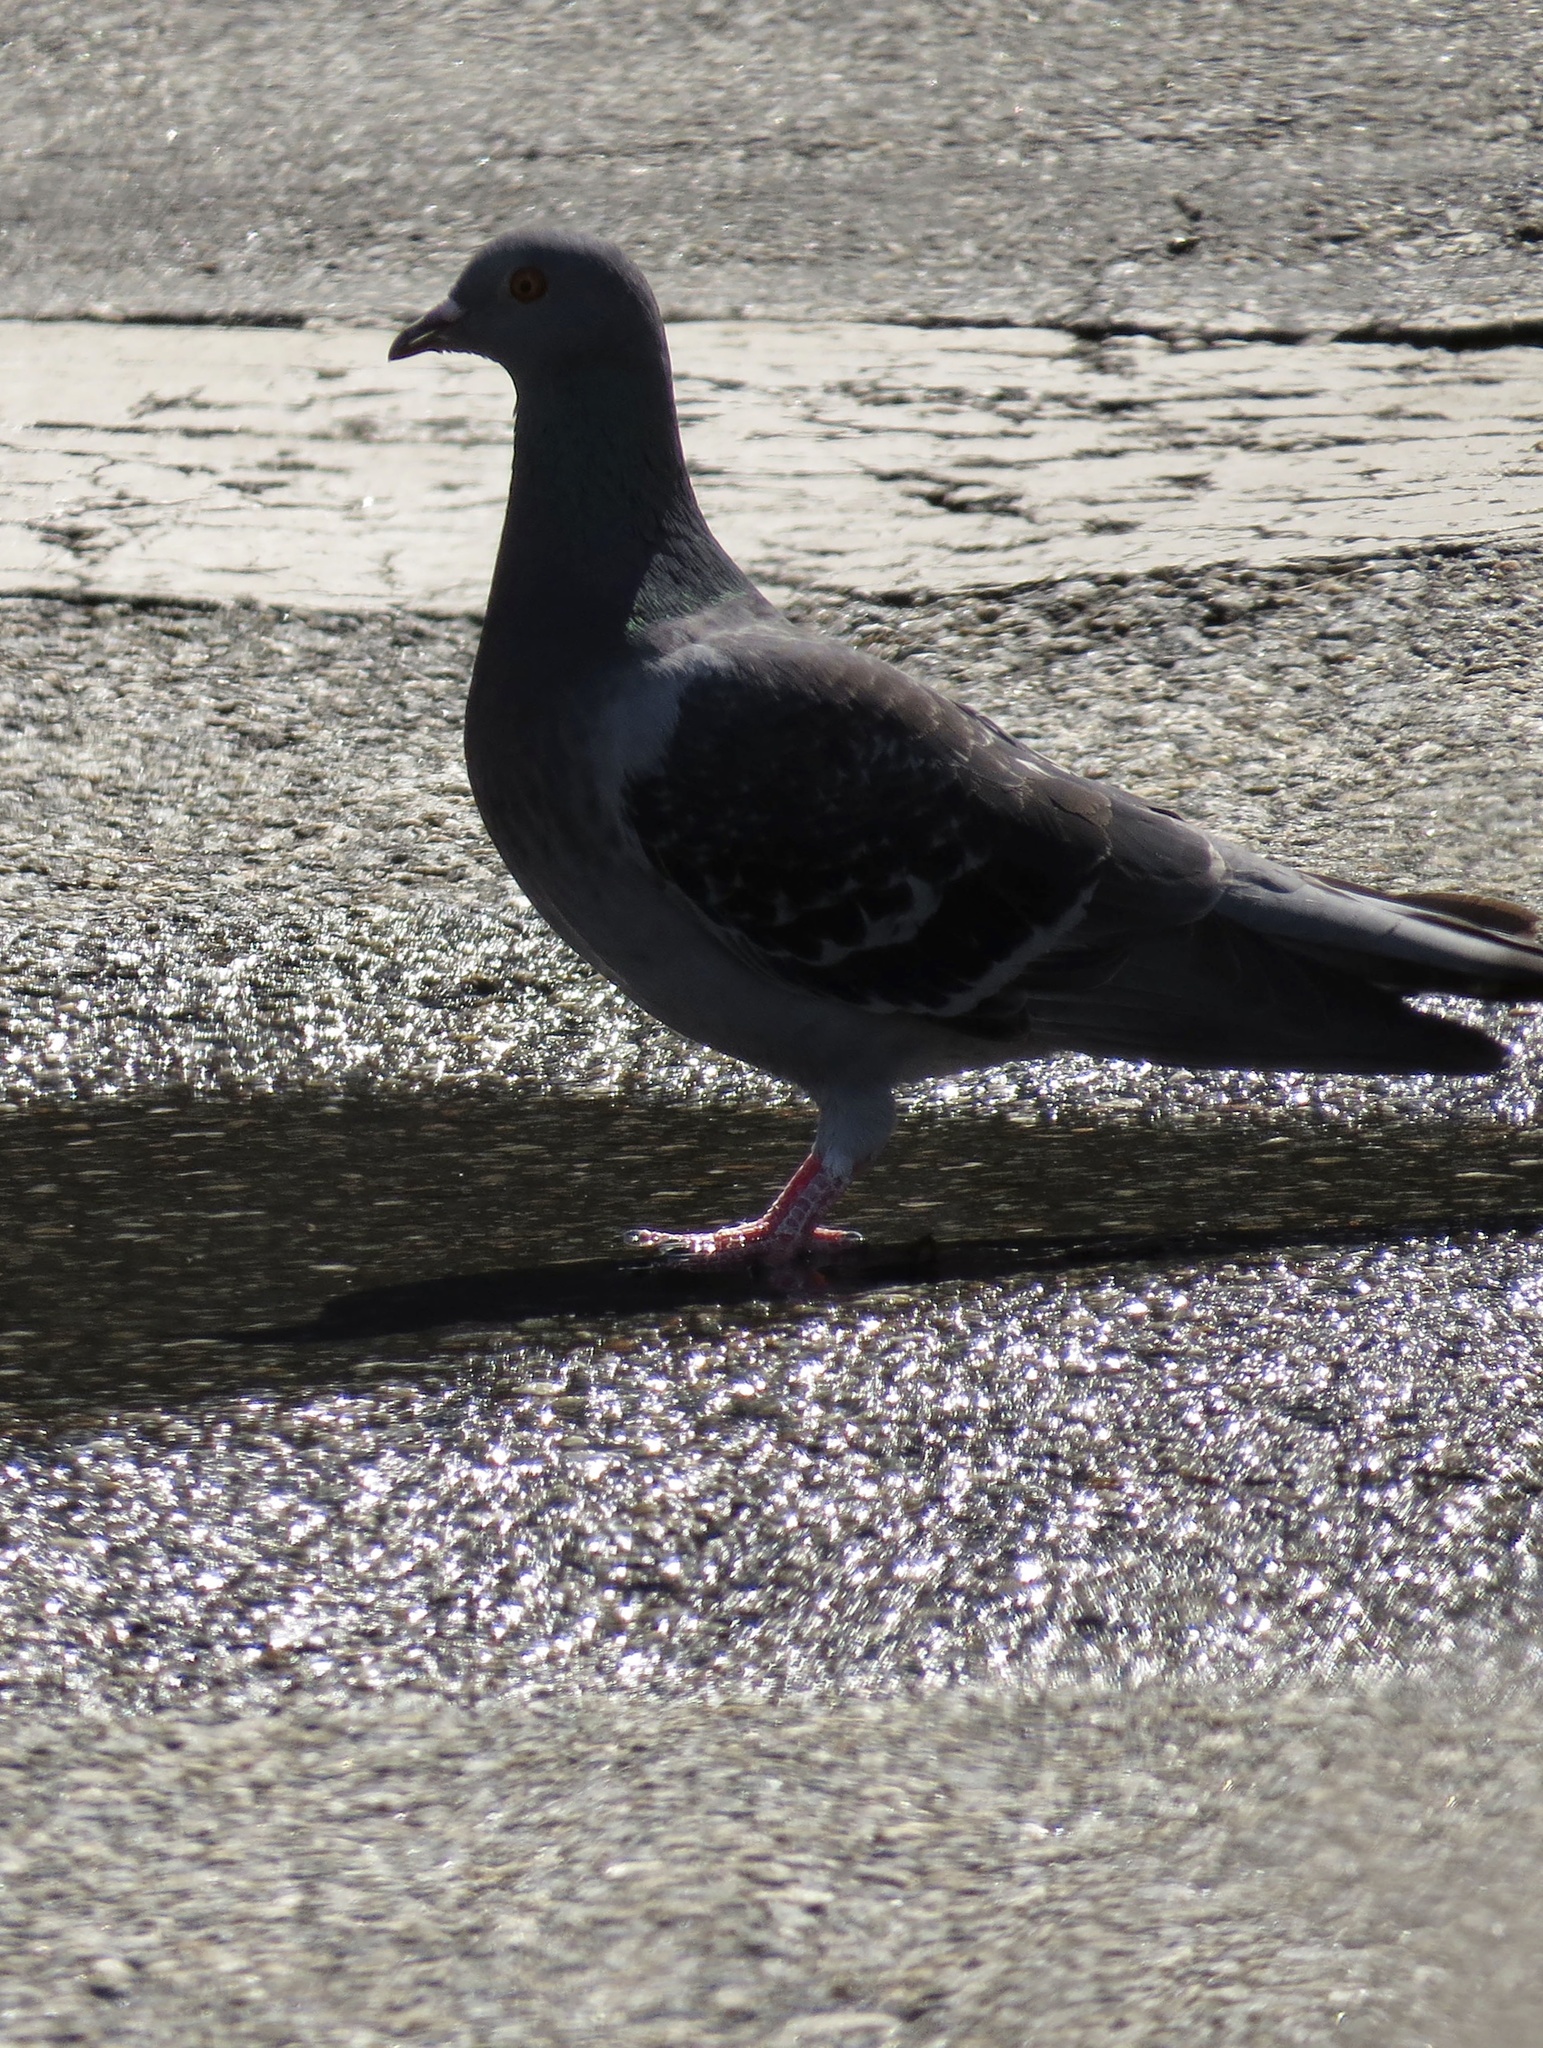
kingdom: Animalia
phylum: Chordata
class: Aves
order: Columbiformes
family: Columbidae
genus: Columba
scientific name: Columba livia
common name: Rock pigeon
